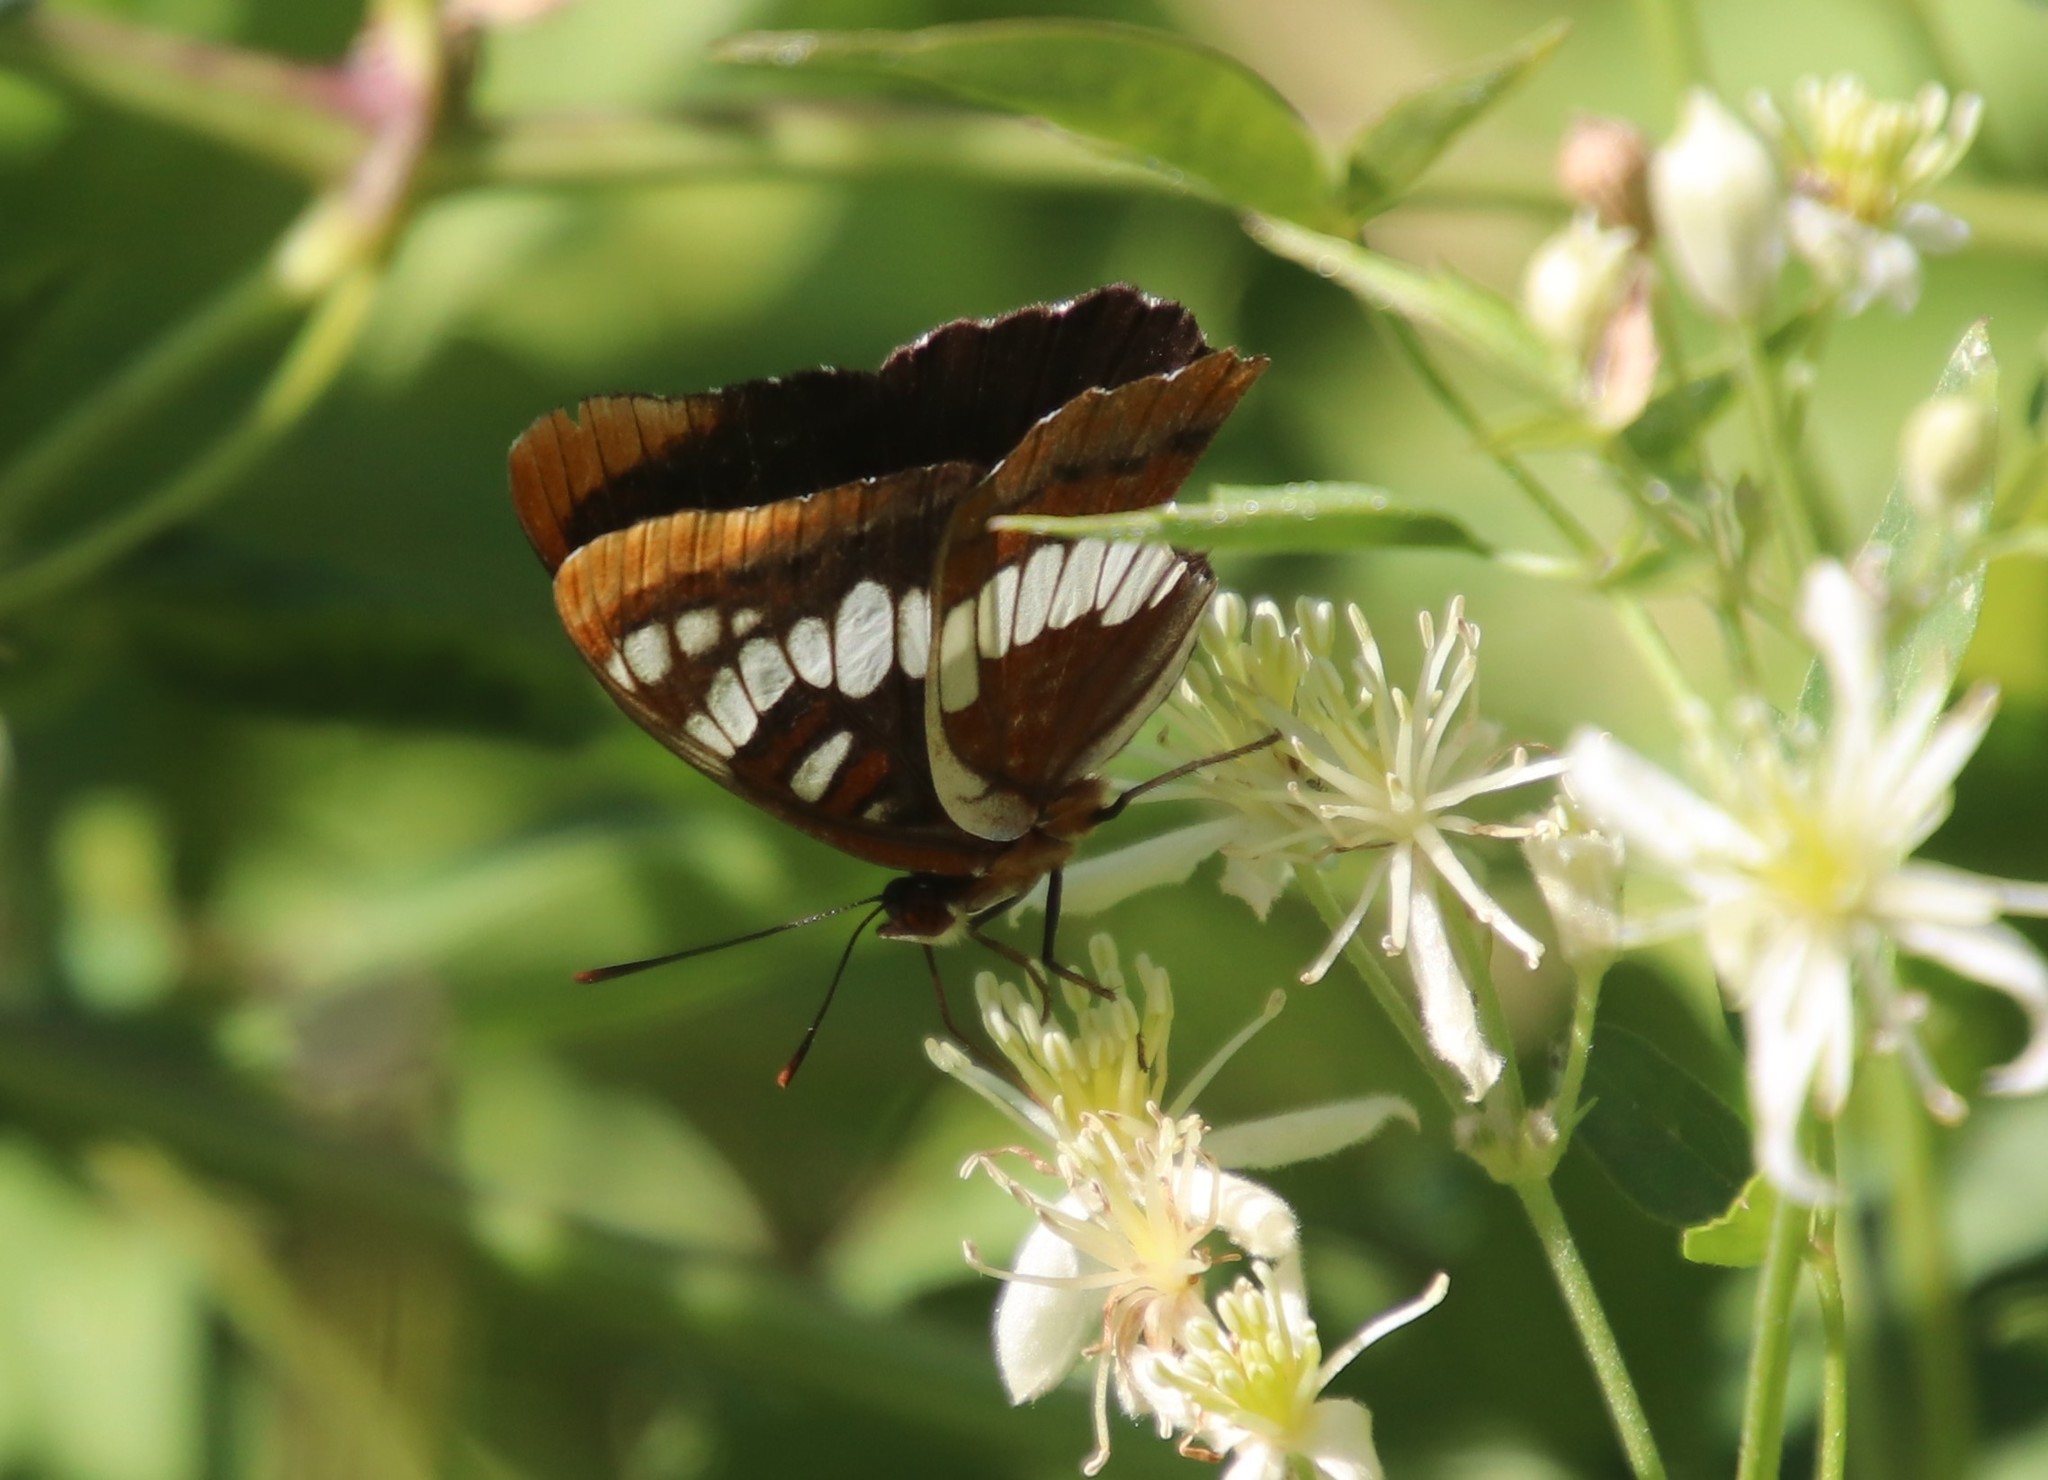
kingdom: Animalia
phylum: Arthropoda
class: Insecta
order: Lepidoptera
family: Nymphalidae
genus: Limenitis
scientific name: Limenitis lorquini
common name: Lorquin's admiral
